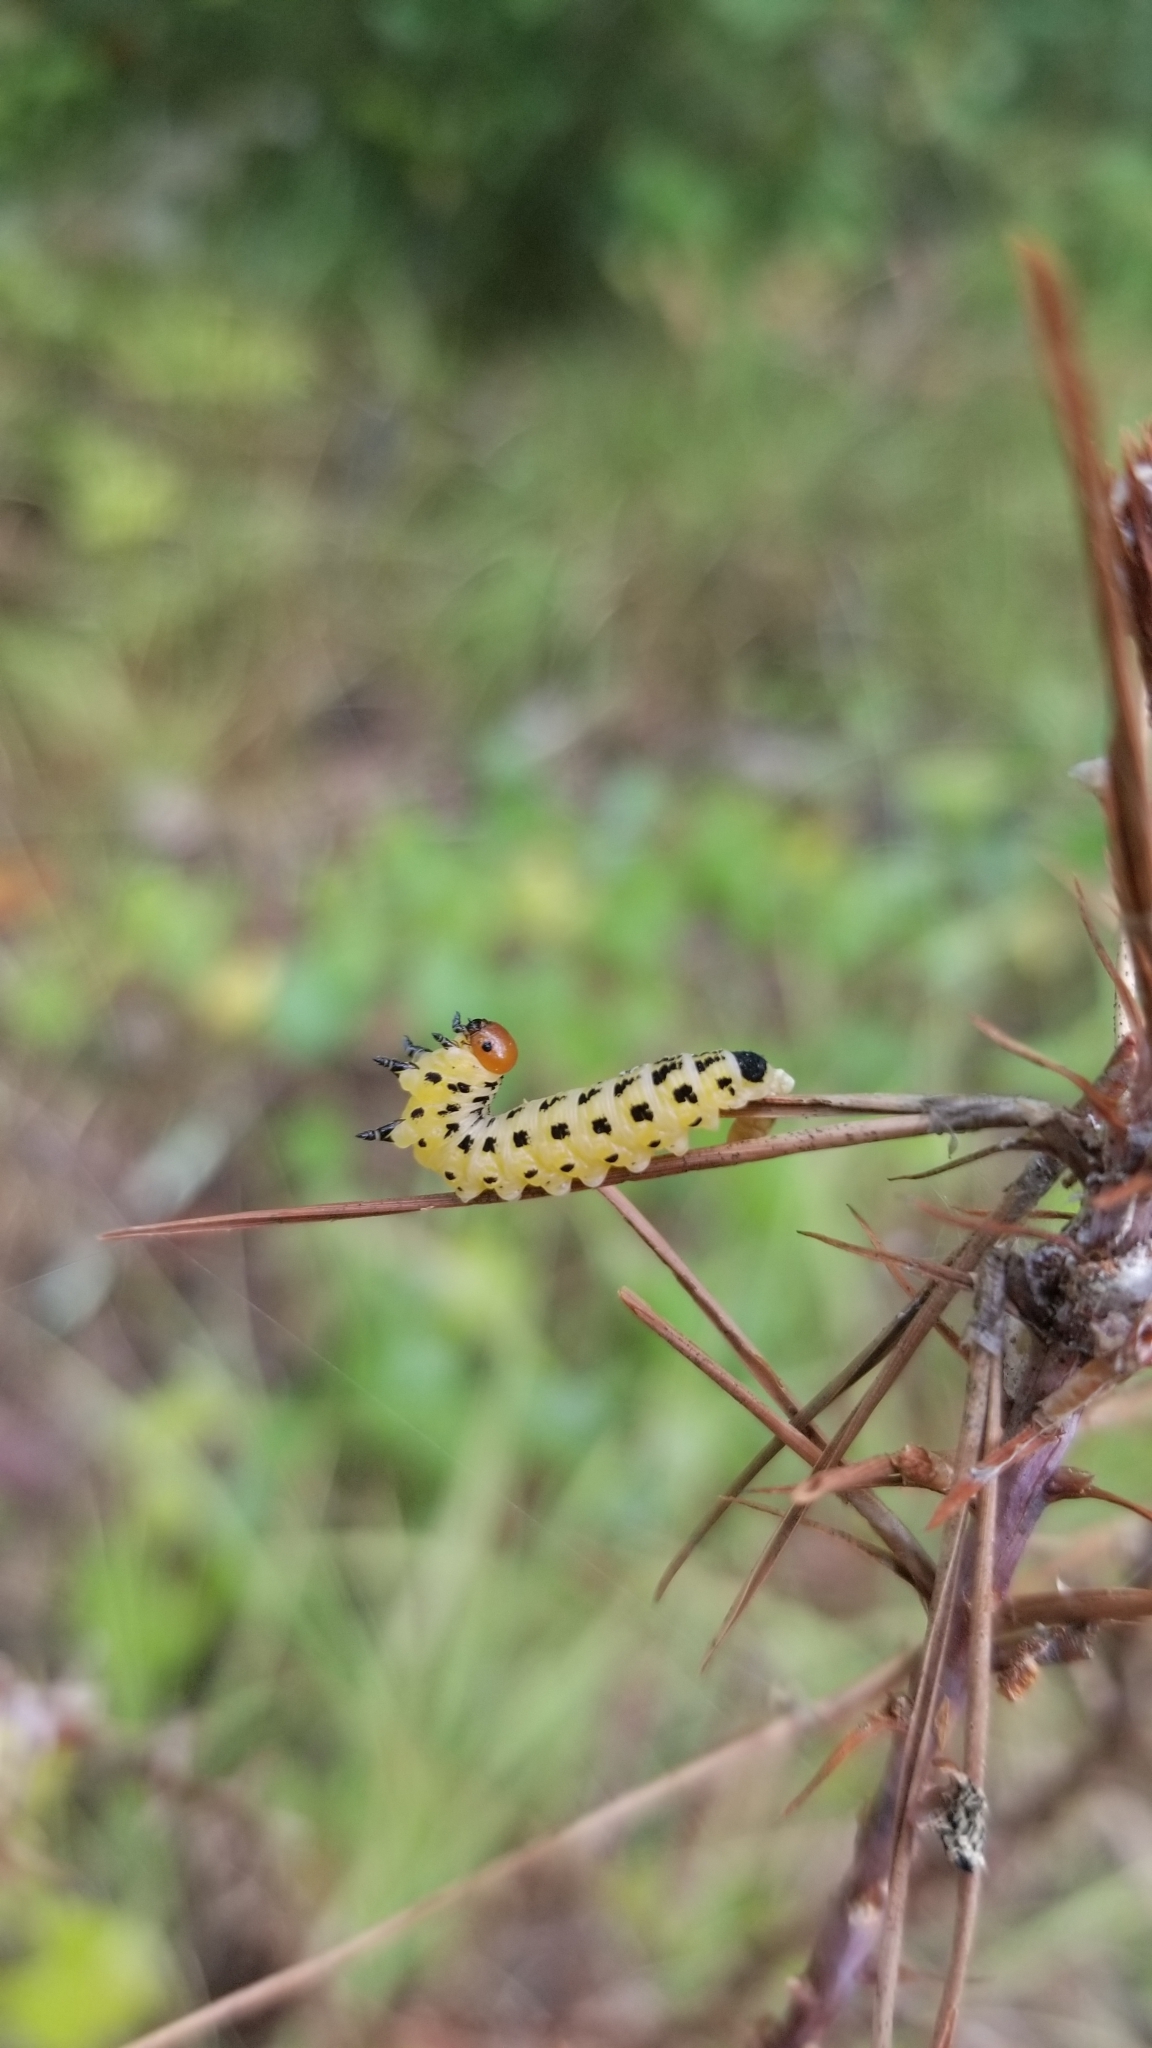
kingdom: Animalia
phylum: Arthropoda
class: Insecta
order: Hymenoptera
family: Diprionidae
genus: Neodiprion
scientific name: Neodiprion lecontei
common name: Redheaded pine sawfly
